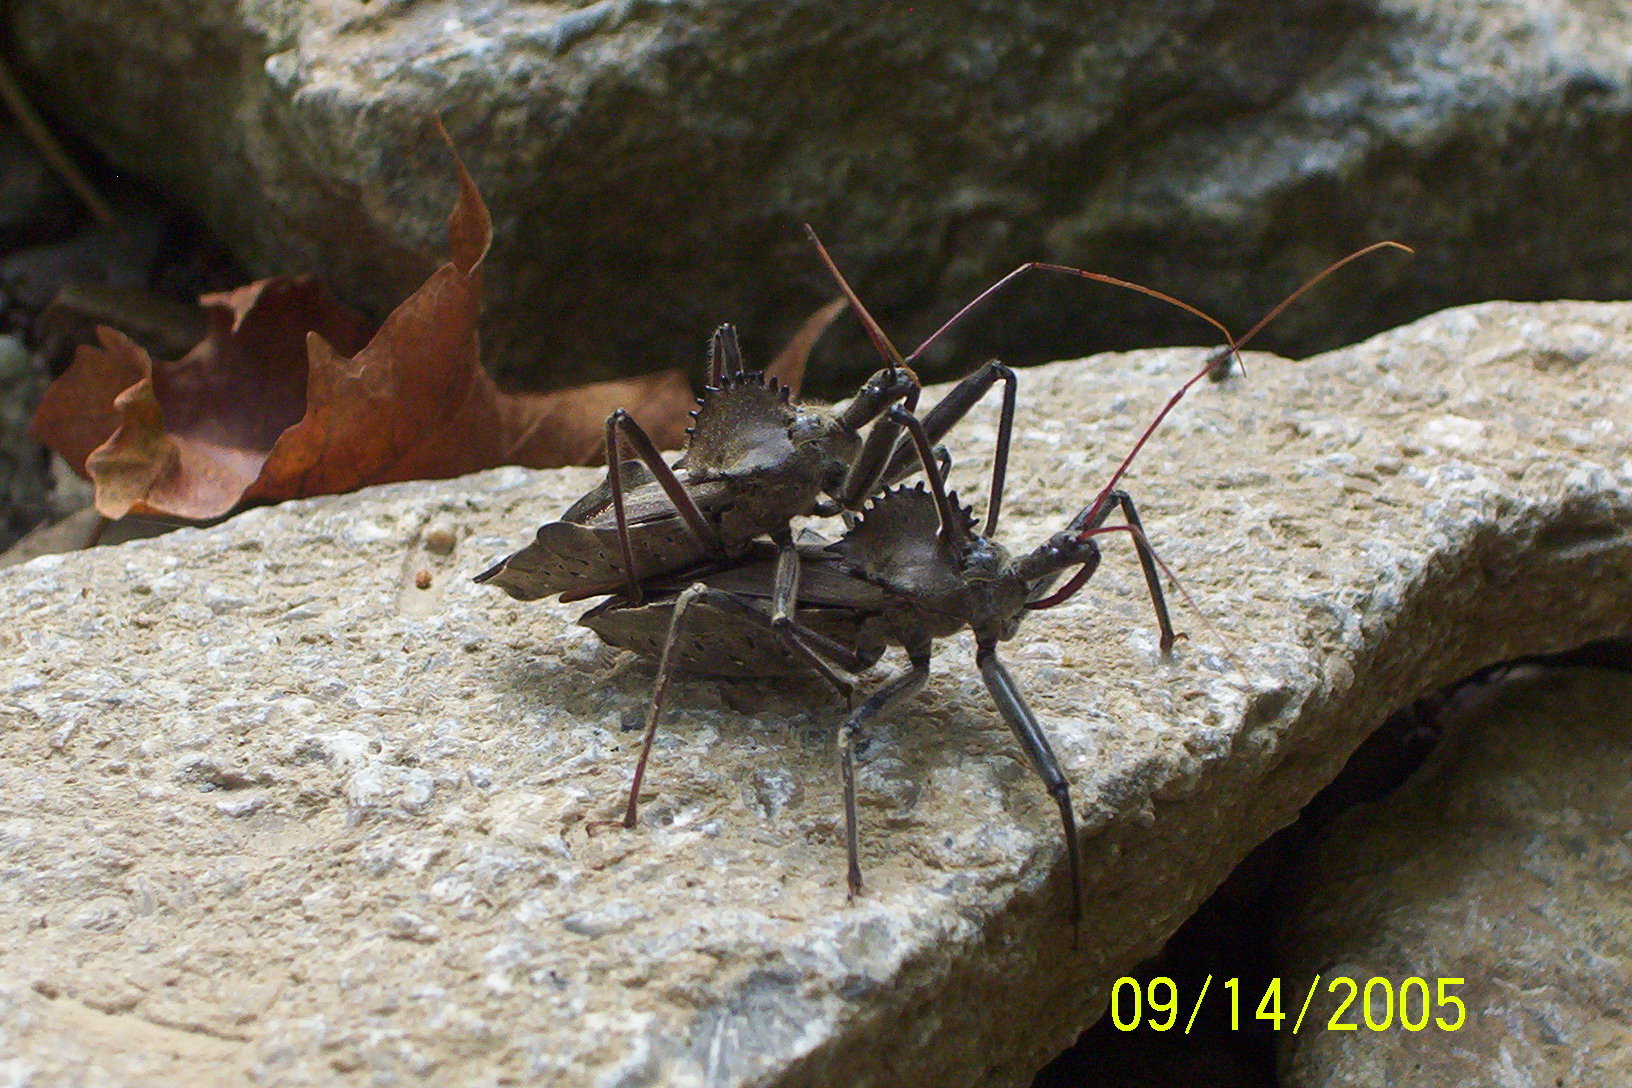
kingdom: Animalia
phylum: Arthropoda
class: Insecta
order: Hemiptera
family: Reduviidae
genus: Arilus
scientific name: Arilus cristatus
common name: North american wheel bug
